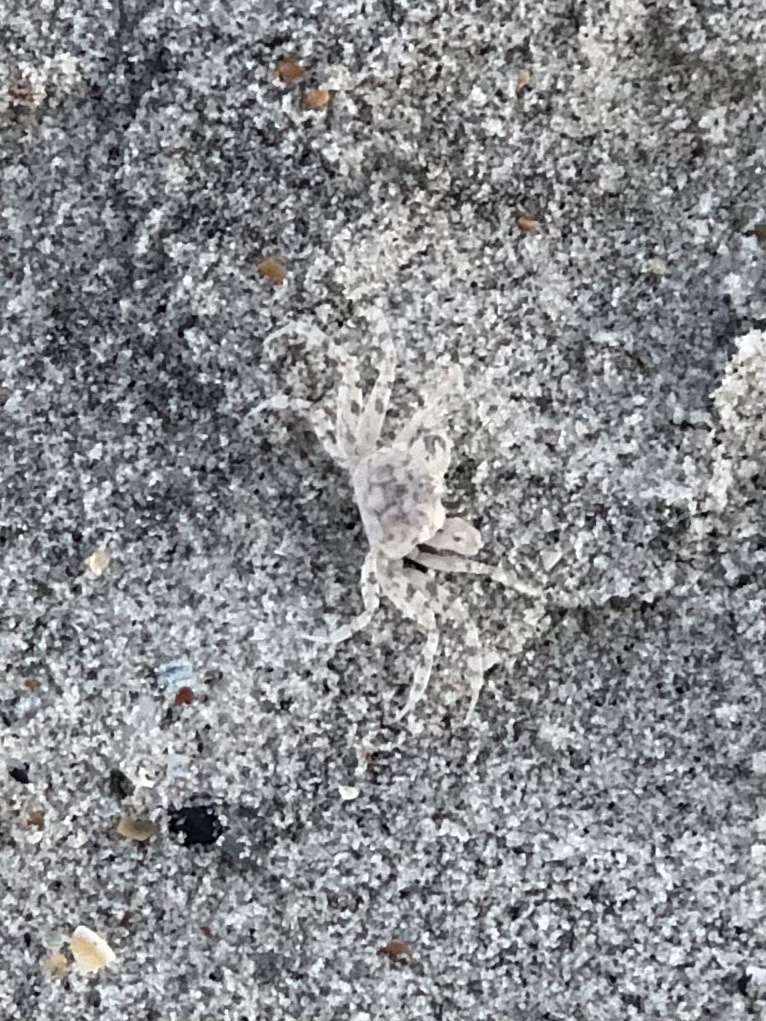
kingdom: Animalia
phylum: Arthropoda
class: Malacostraca
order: Decapoda
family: Ocypodidae
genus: Ocypode
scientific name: Ocypode quadrata
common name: Ghost crab
